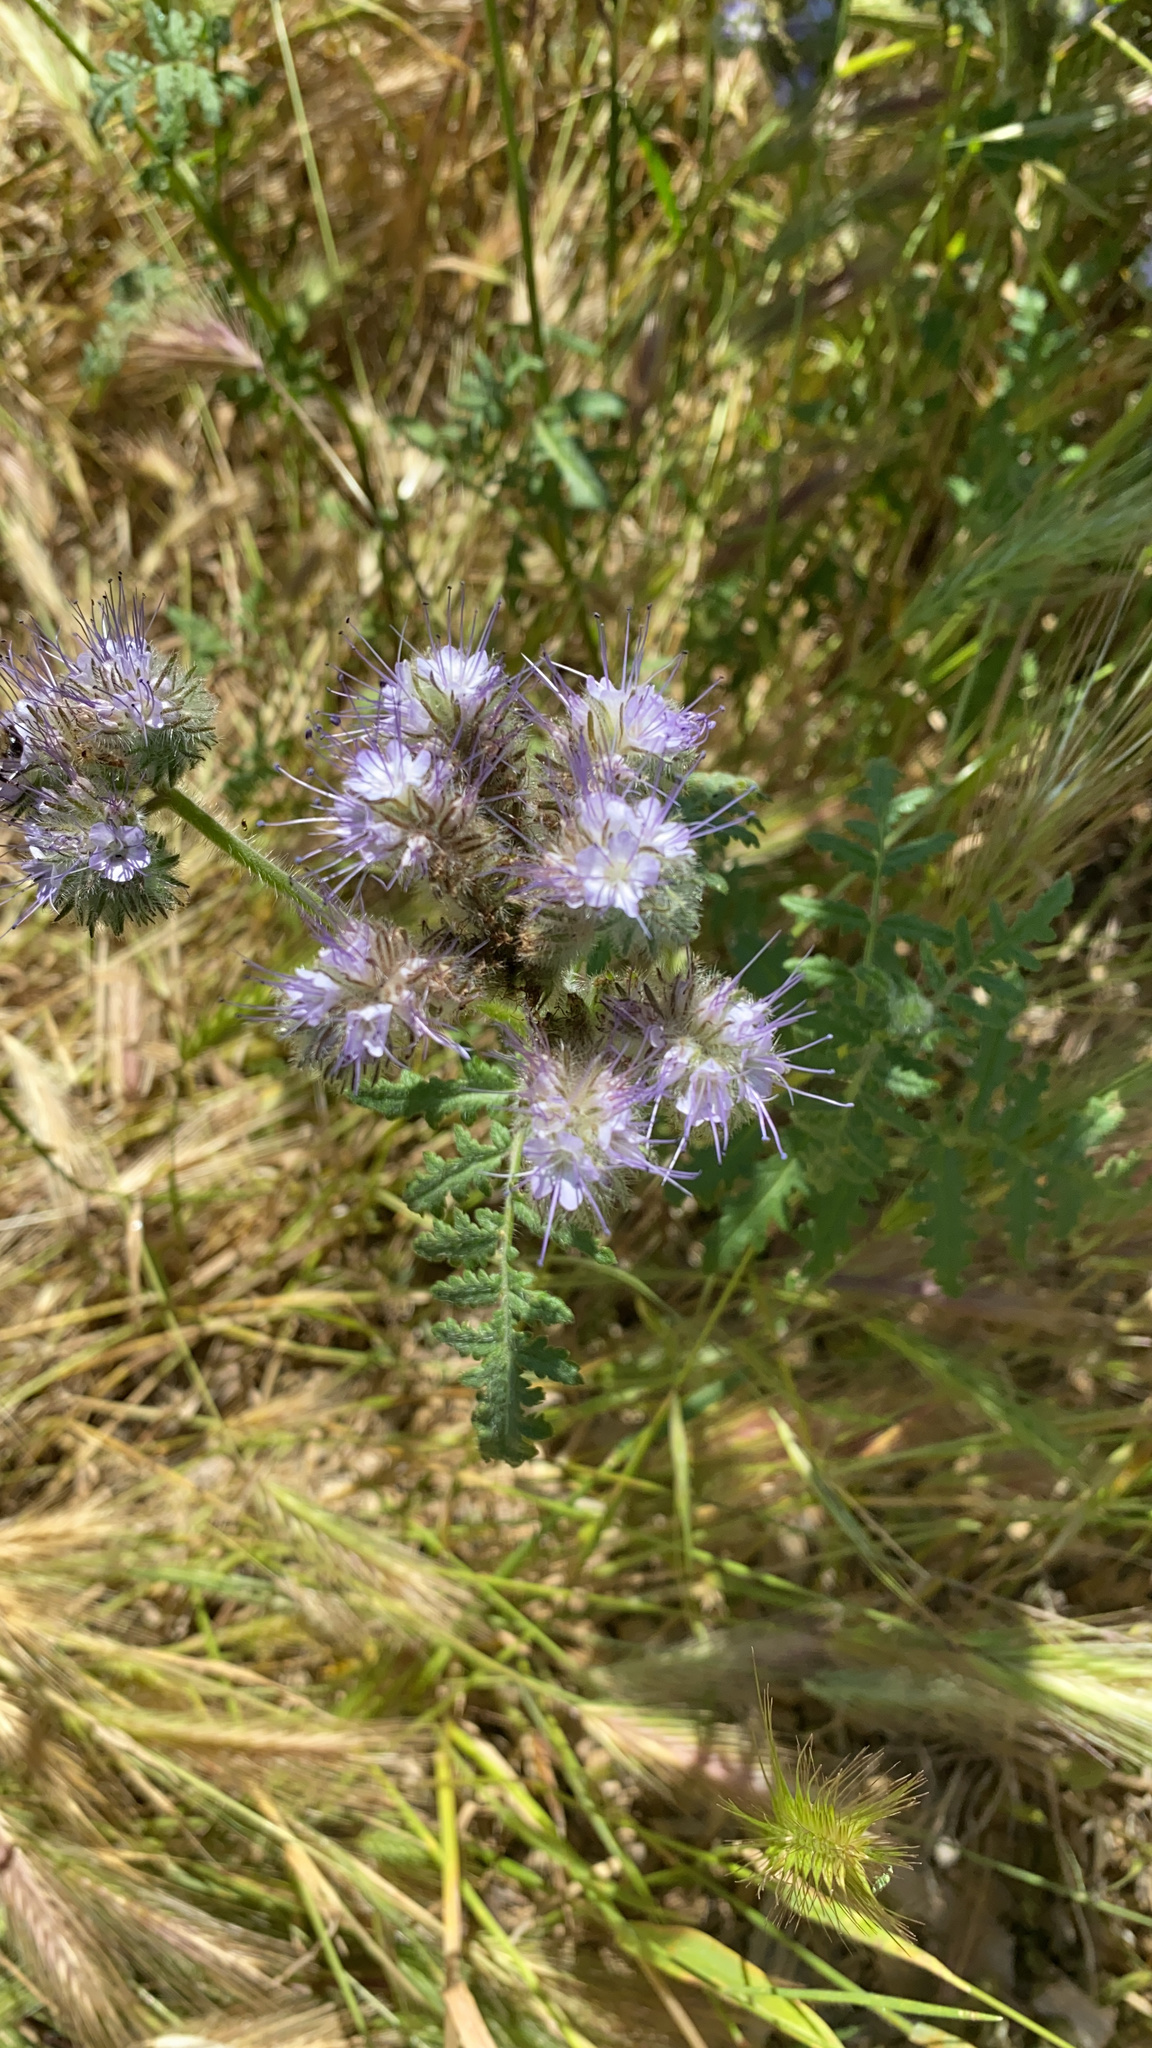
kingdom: Plantae
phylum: Tracheophyta
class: Magnoliopsida
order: Boraginales
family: Hydrophyllaceae
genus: Phacelia
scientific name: Phacelia tanacetifolia
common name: Phacelia
